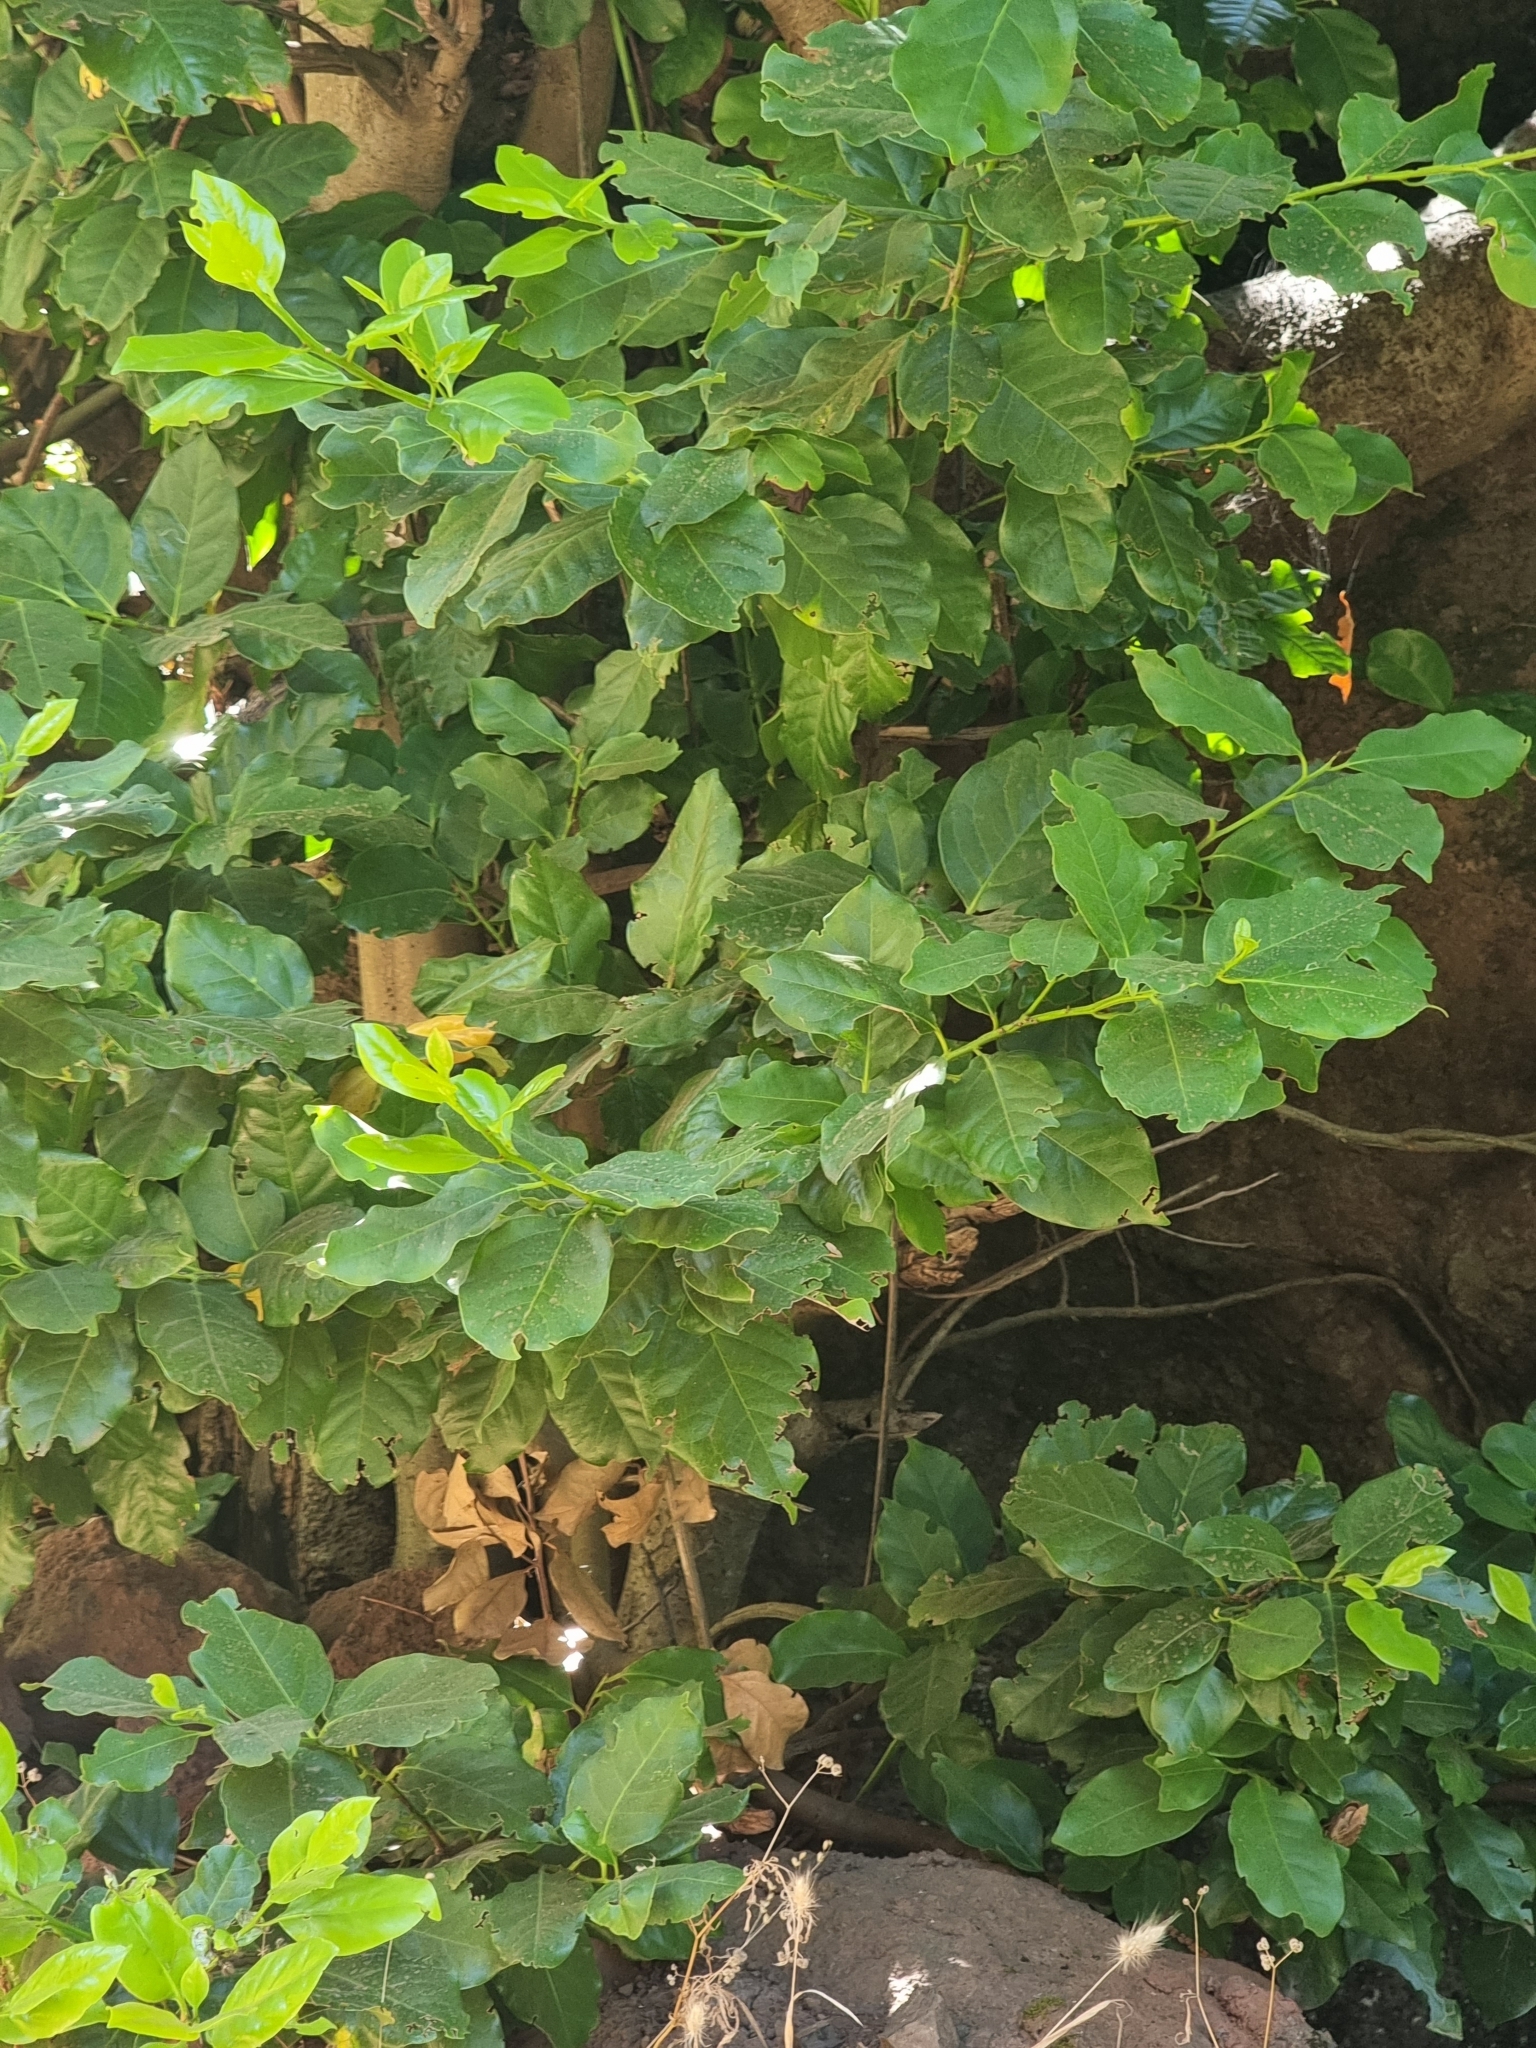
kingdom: Plantae
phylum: Tracheophyta
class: Magnoliopsida
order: Laurales
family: Lauraceae
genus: Mespilodaphne
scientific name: Mespilodaphne foetens
